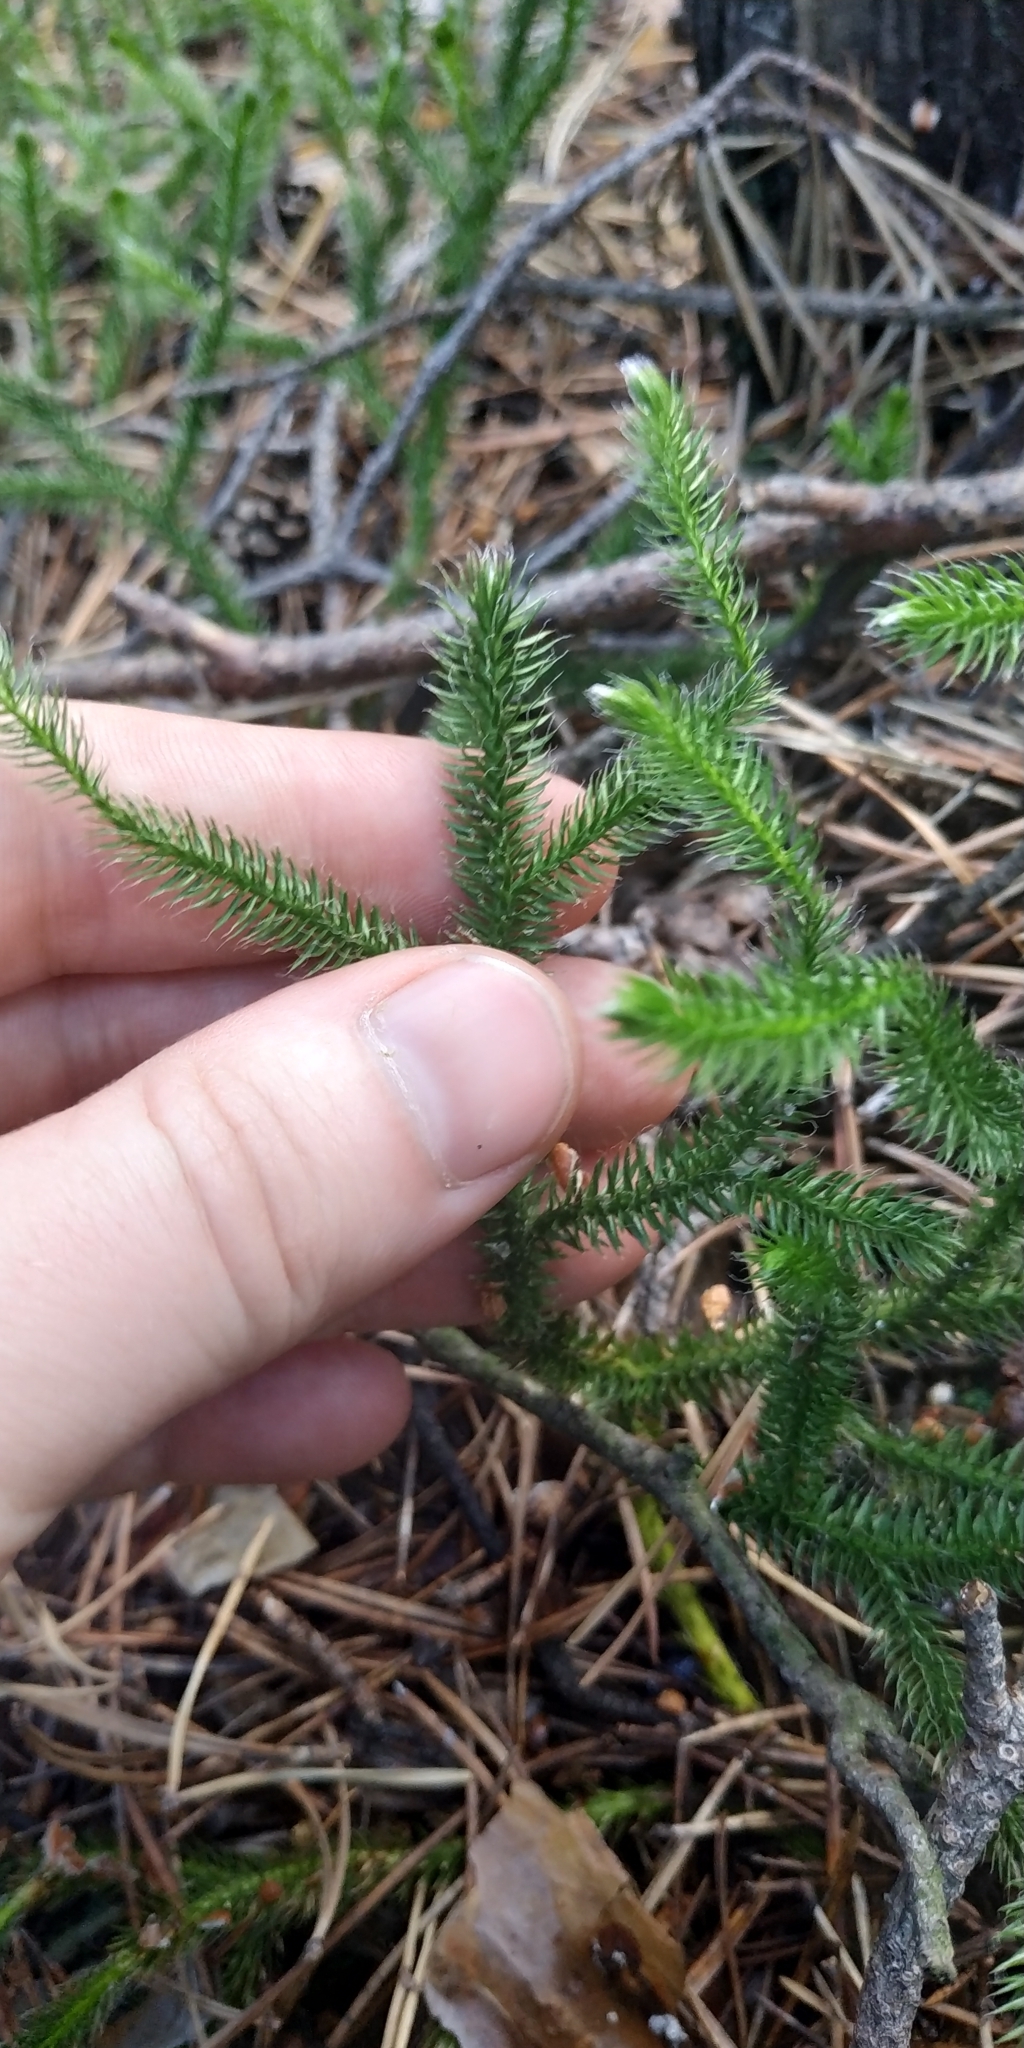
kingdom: Plantae
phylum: Tracheophyta
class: Lycopodiopsida
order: Lycopodiales
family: Lycopodiaceae
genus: Lycopodium
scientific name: Lycopodium clavatum
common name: Stag's-horn clubmoss
